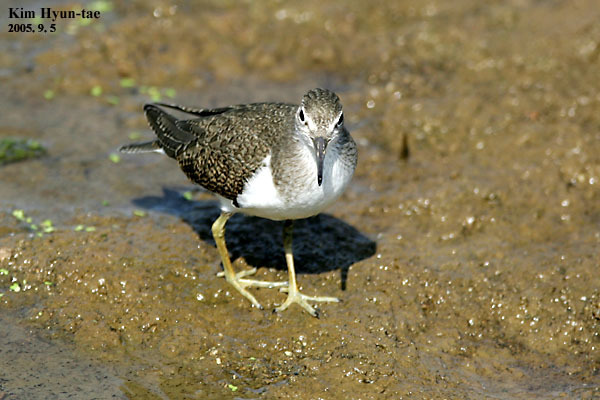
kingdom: Animalia
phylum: Chordata
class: Aves
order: Charadriiformes
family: Scolopacidae
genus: Actitis
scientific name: Actitis hypoleucos
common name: Common sandpiper
